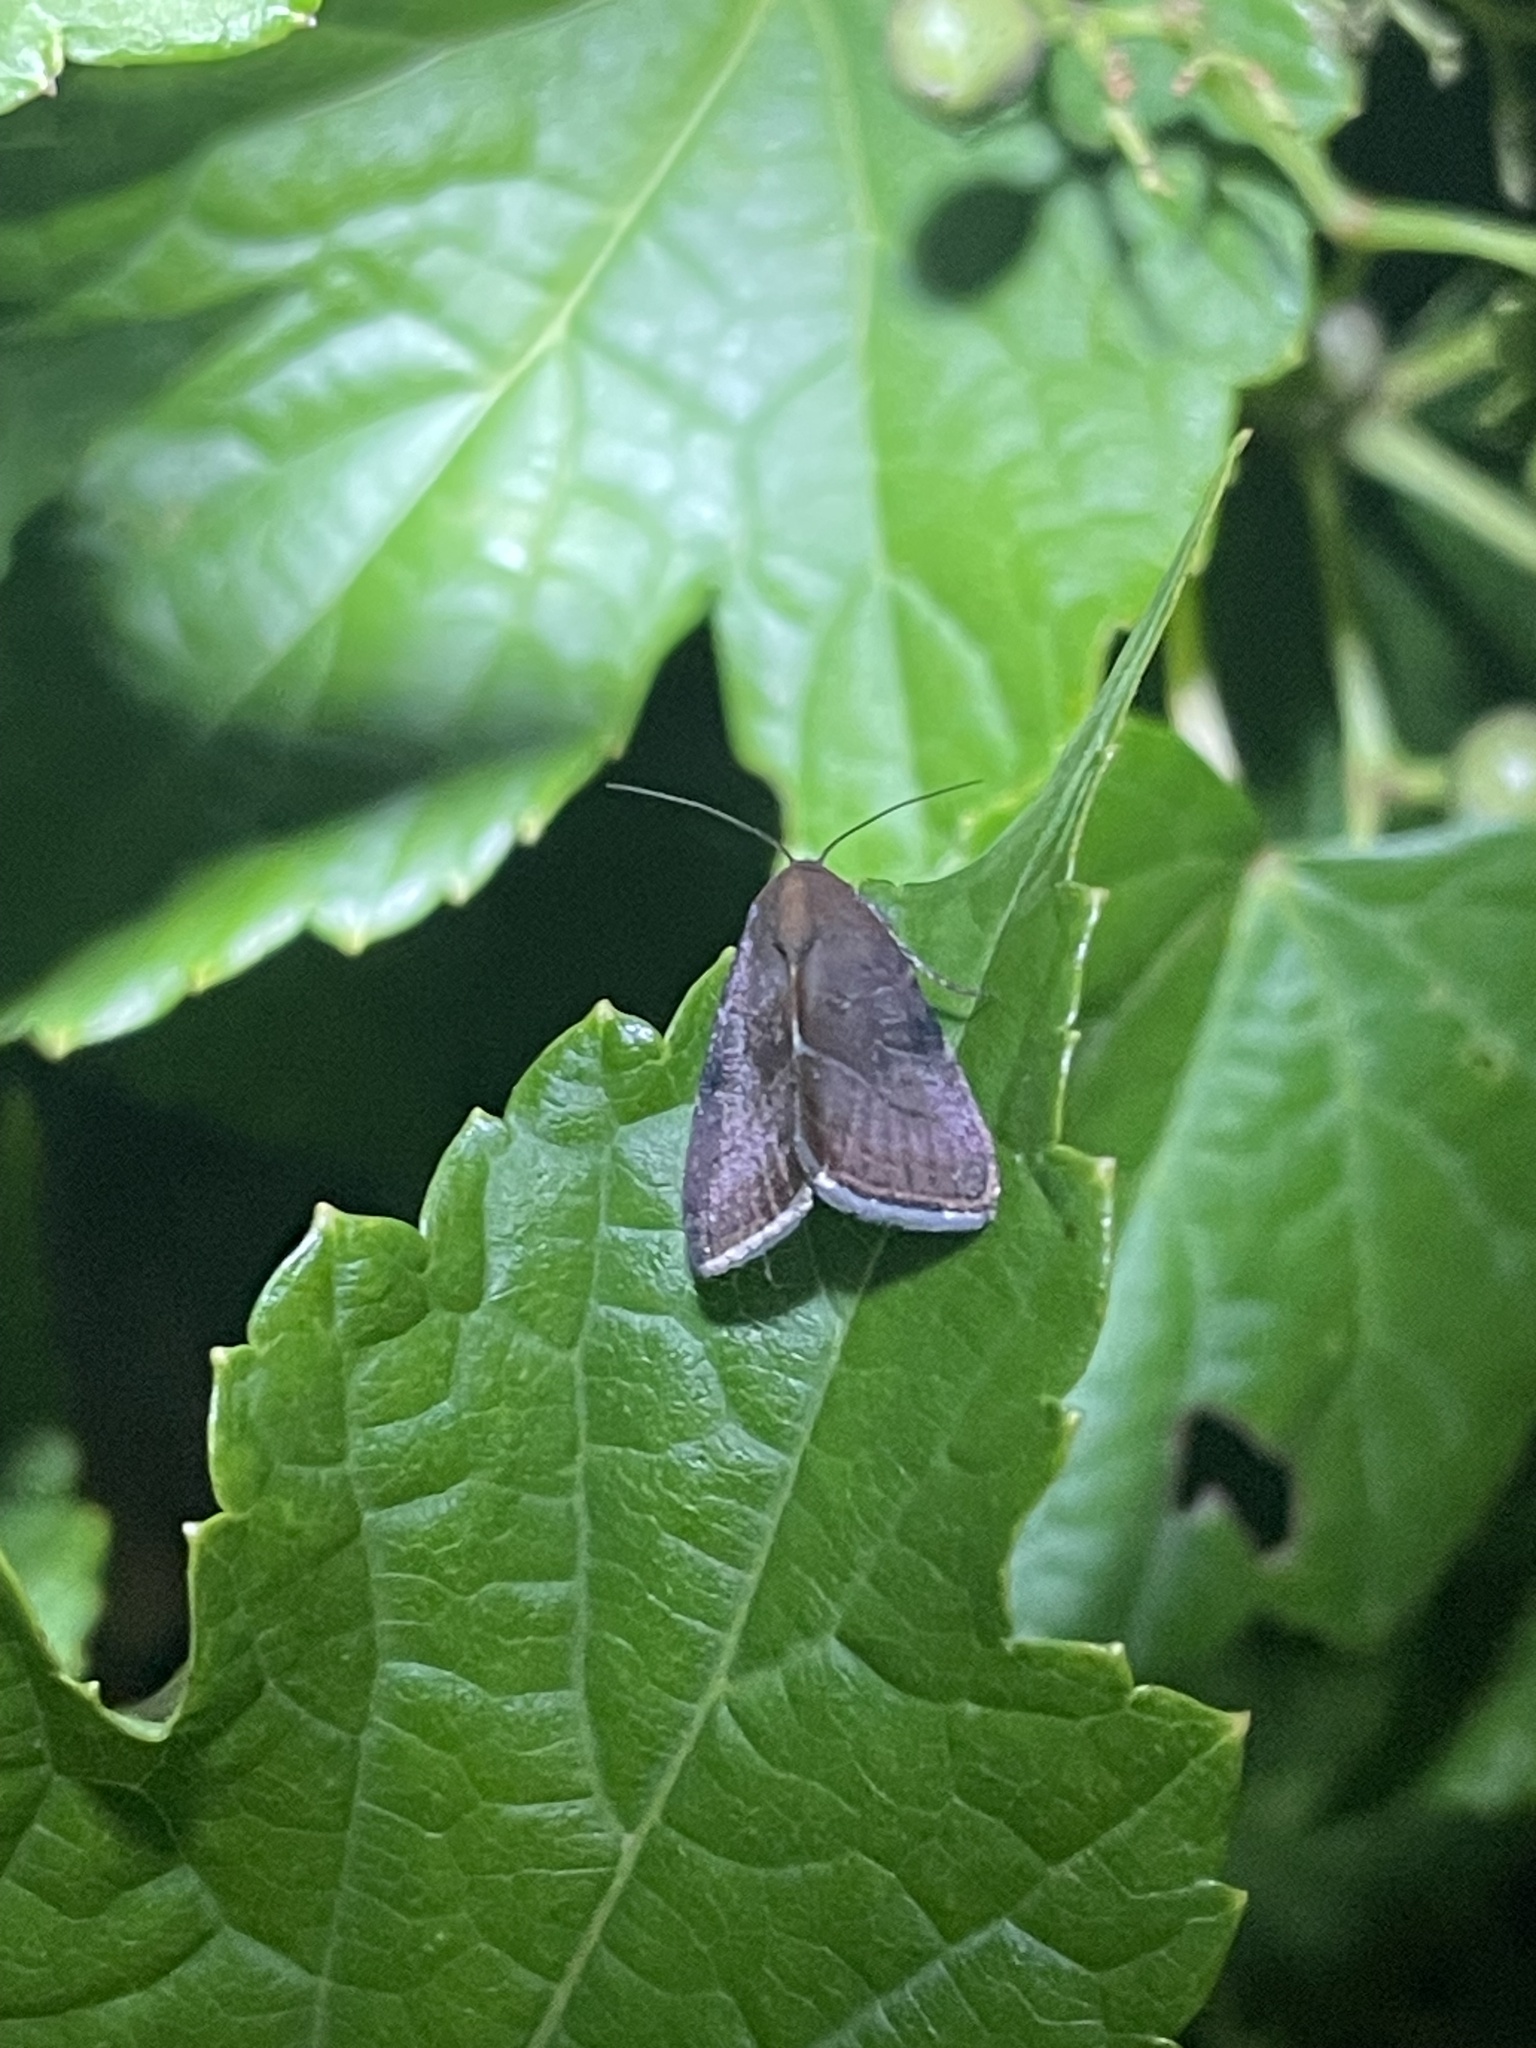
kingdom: Animalia
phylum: Arthropoda
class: Insecta
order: Lepidoptera
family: Noctuidae
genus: Galgula
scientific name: Galgula partita
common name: Wedgeling
